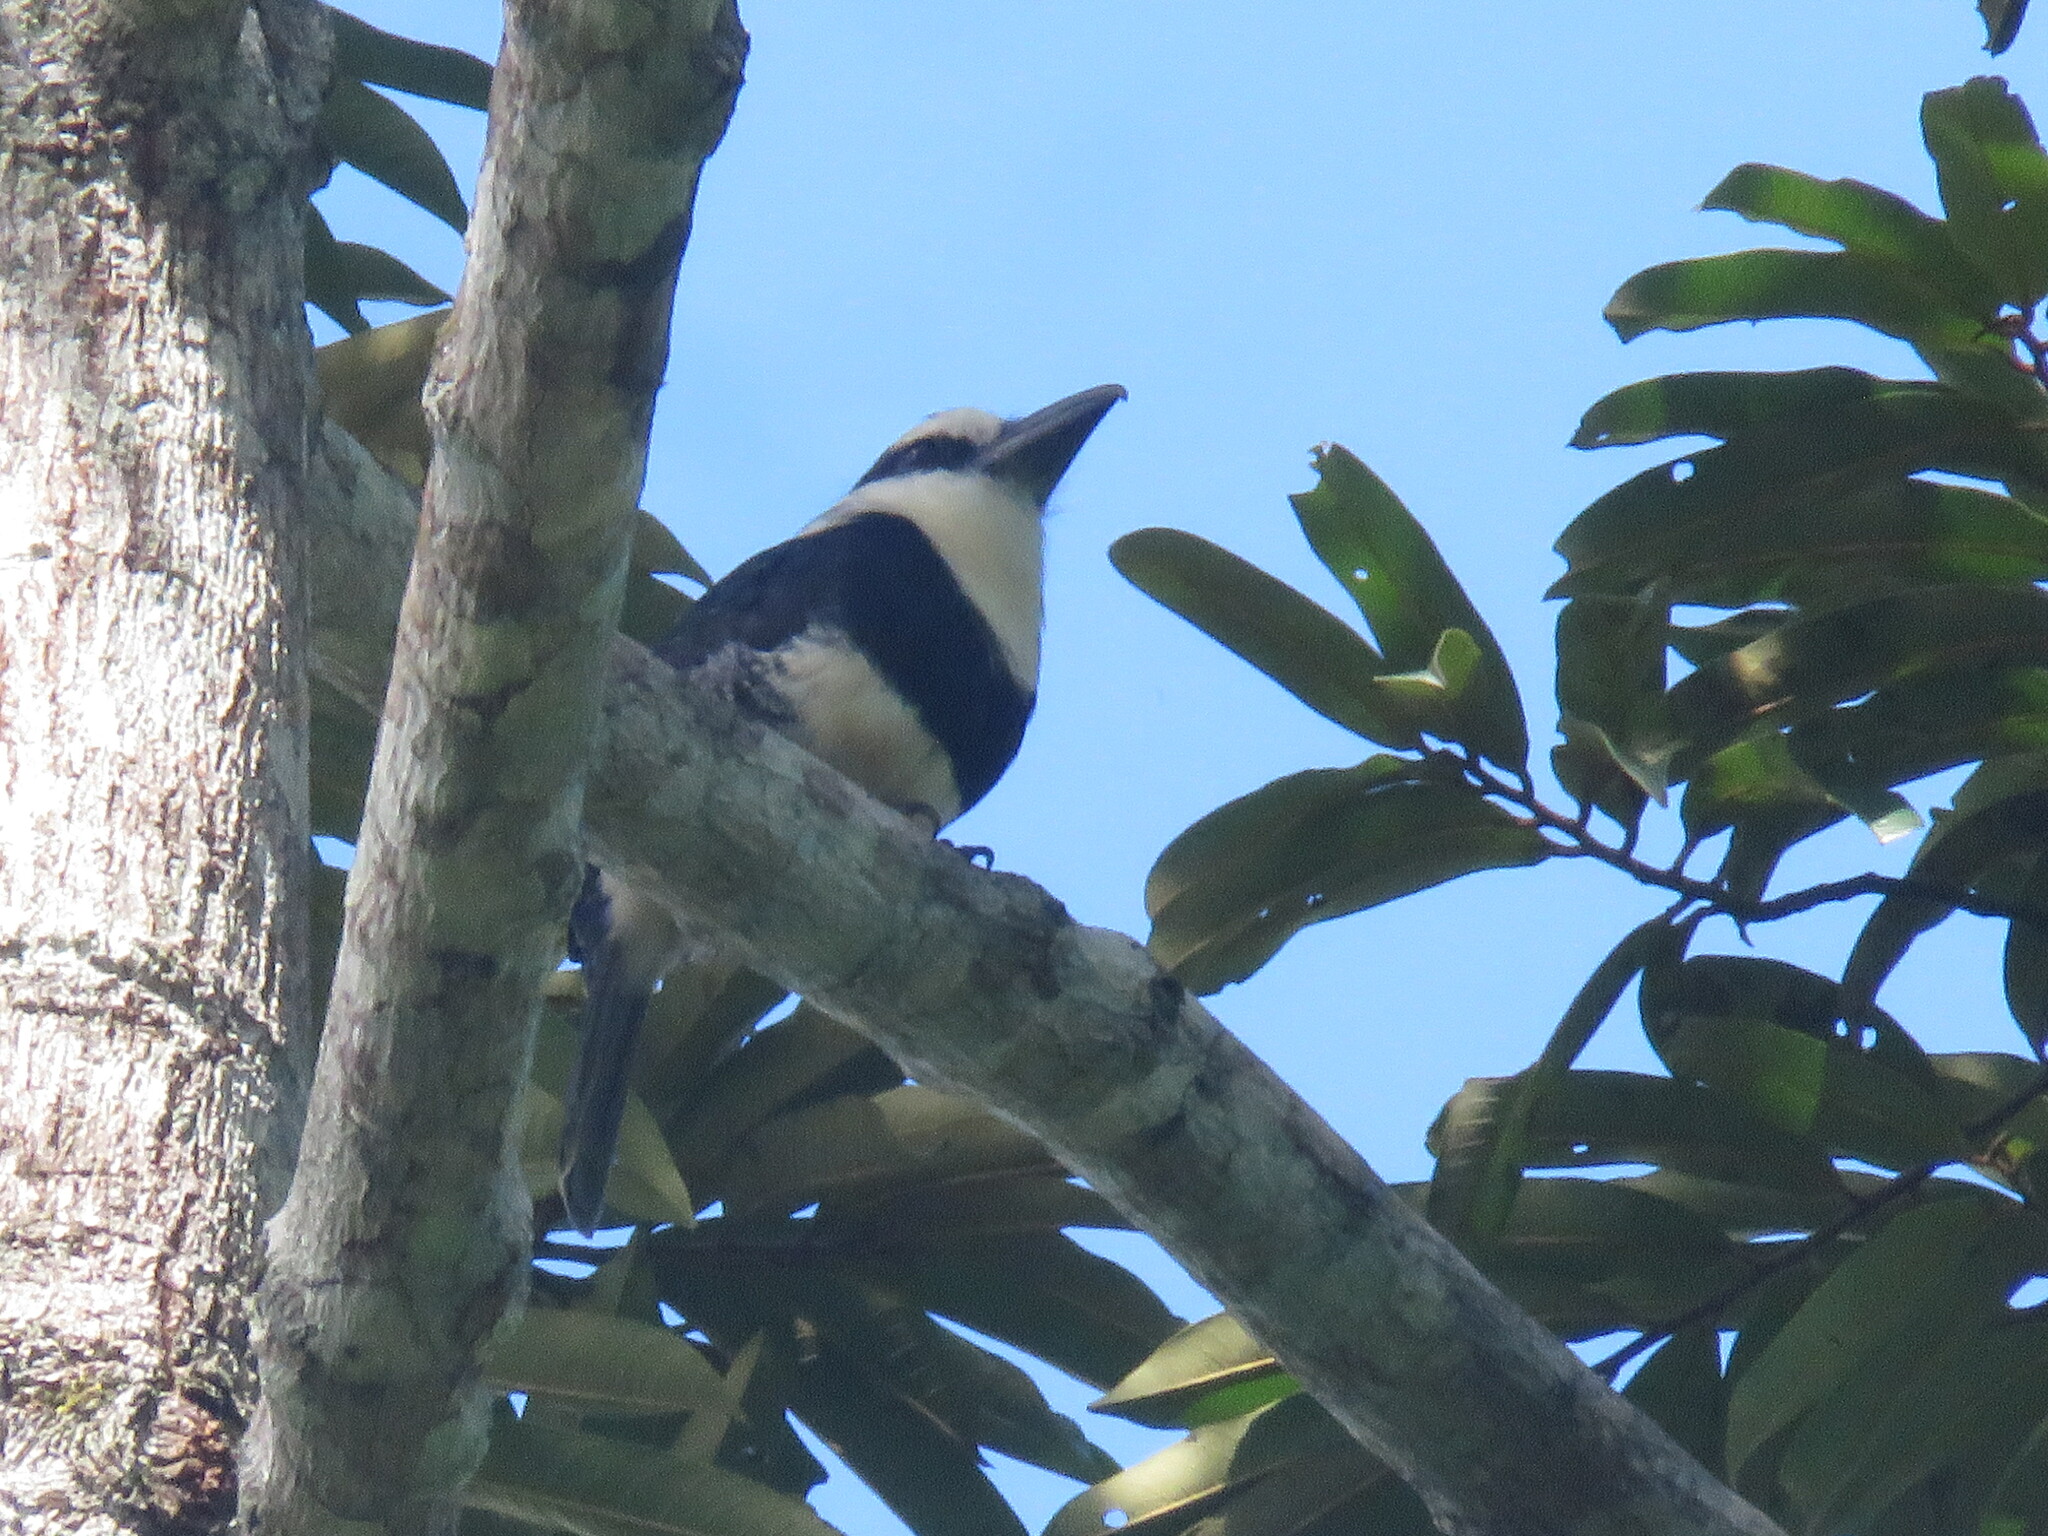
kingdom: Animalia
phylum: Chordata
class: Aves
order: Piciformes
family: Bucconidae
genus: Notharchus
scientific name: Notharchus hyperrhynchus
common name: White-necked puffbird
